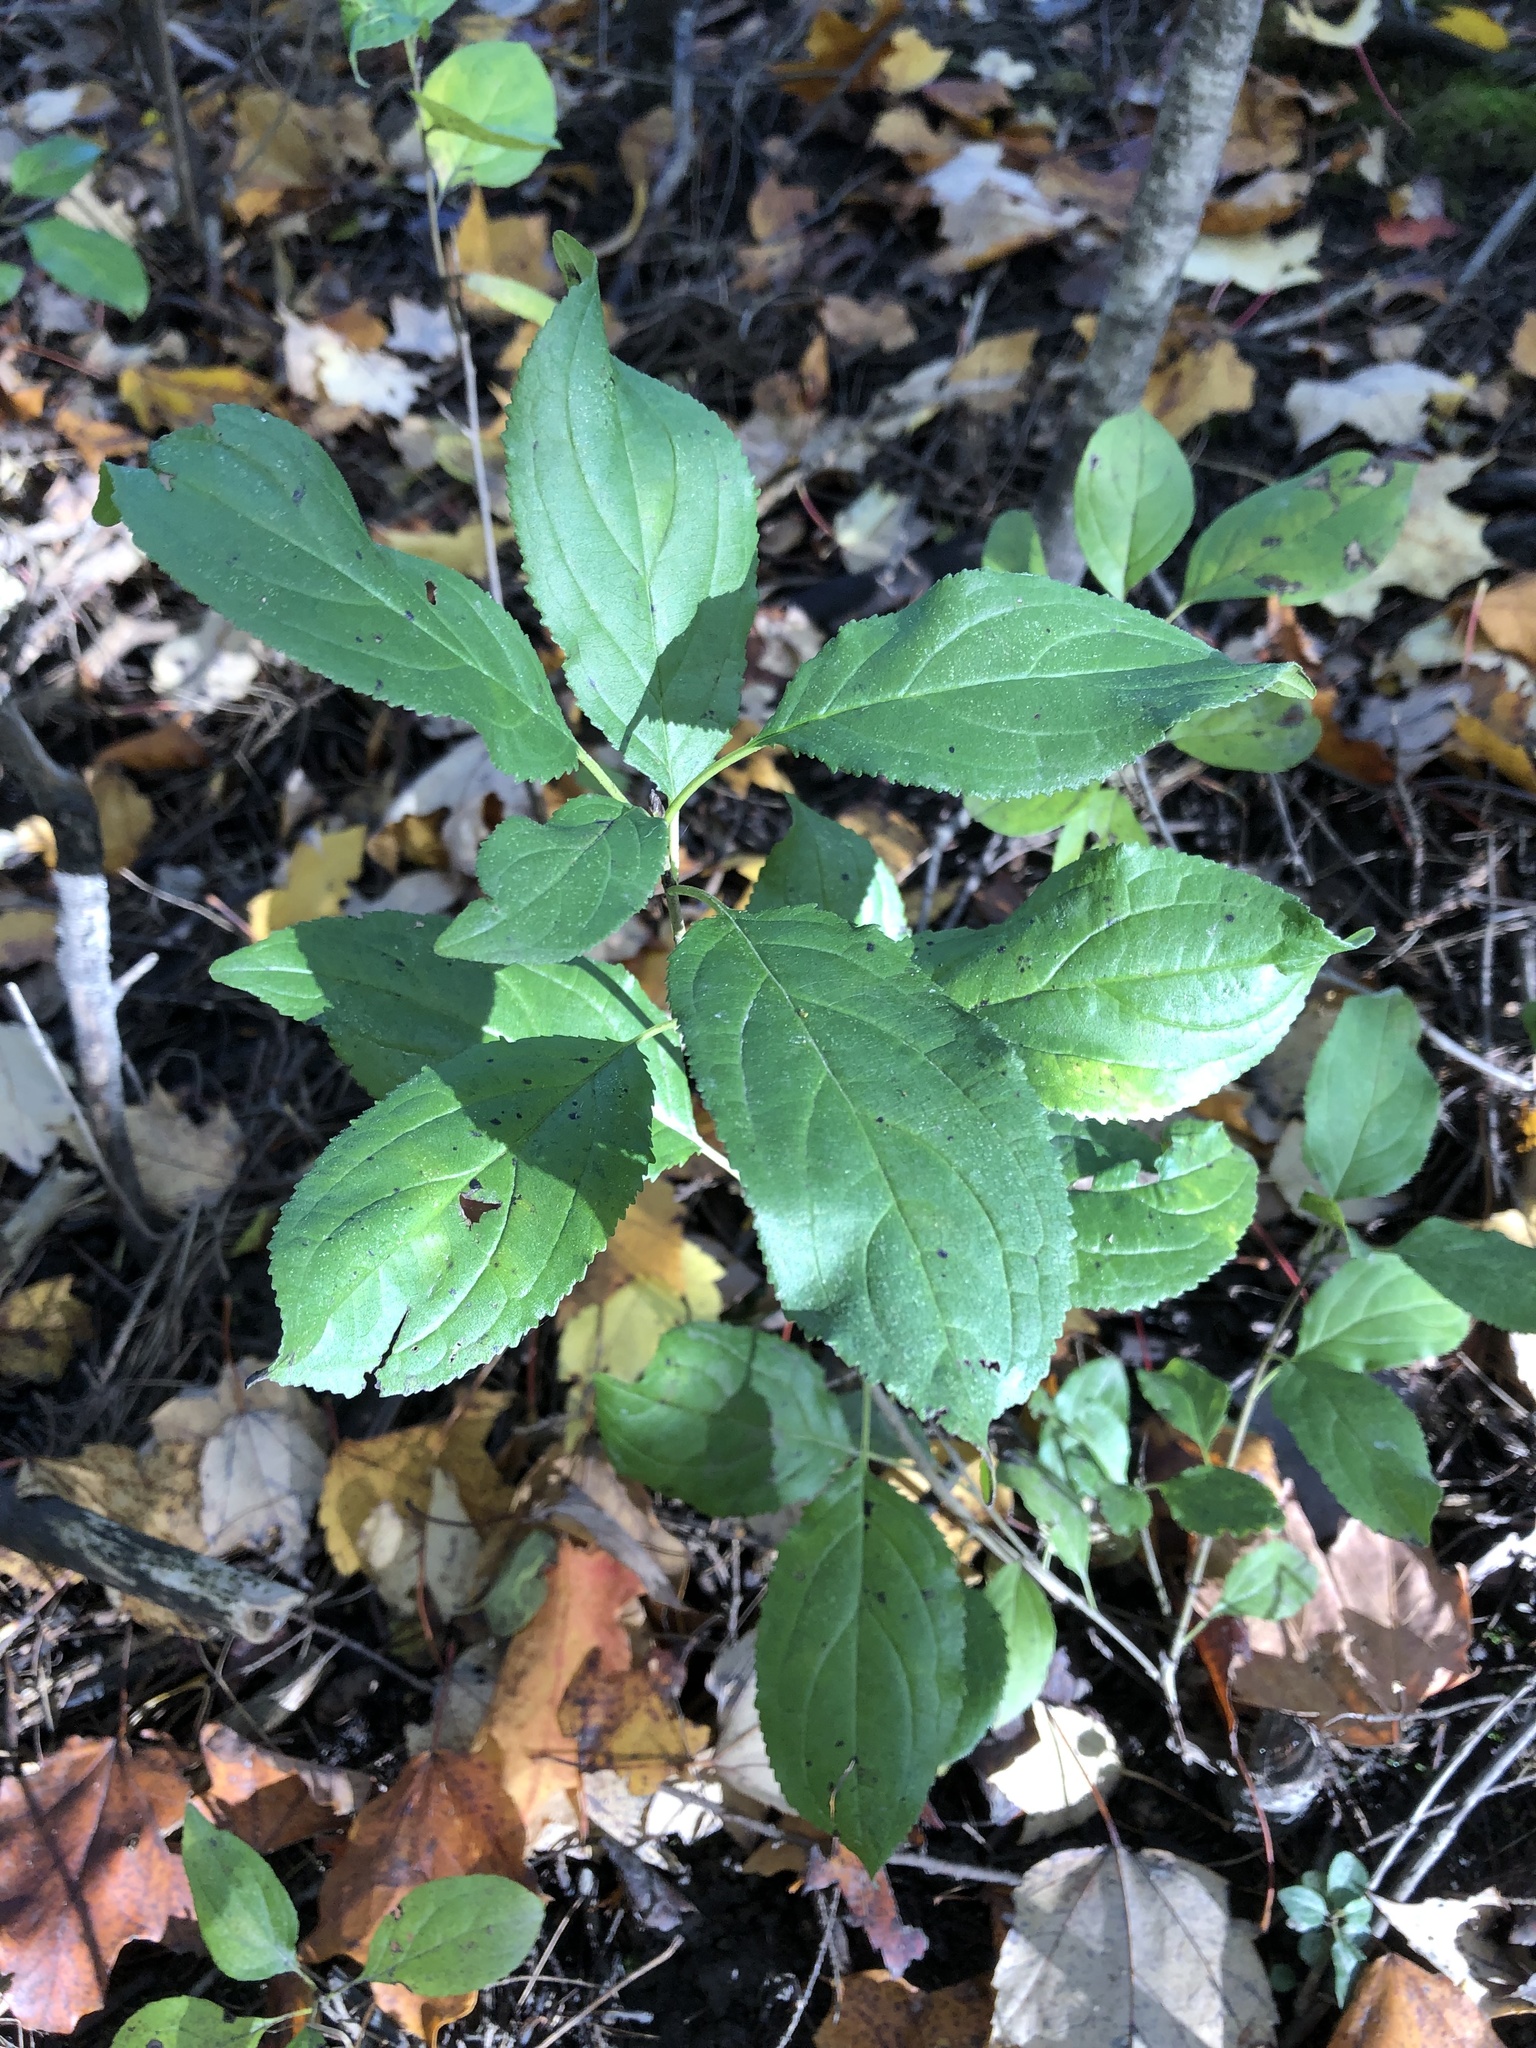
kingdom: Plantae
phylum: Tracheophyta
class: Magnoliopsida
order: Rosales
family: Rhamnaceae
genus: Rhamnus
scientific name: Rhamnus cathartica
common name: Common buckthorn
